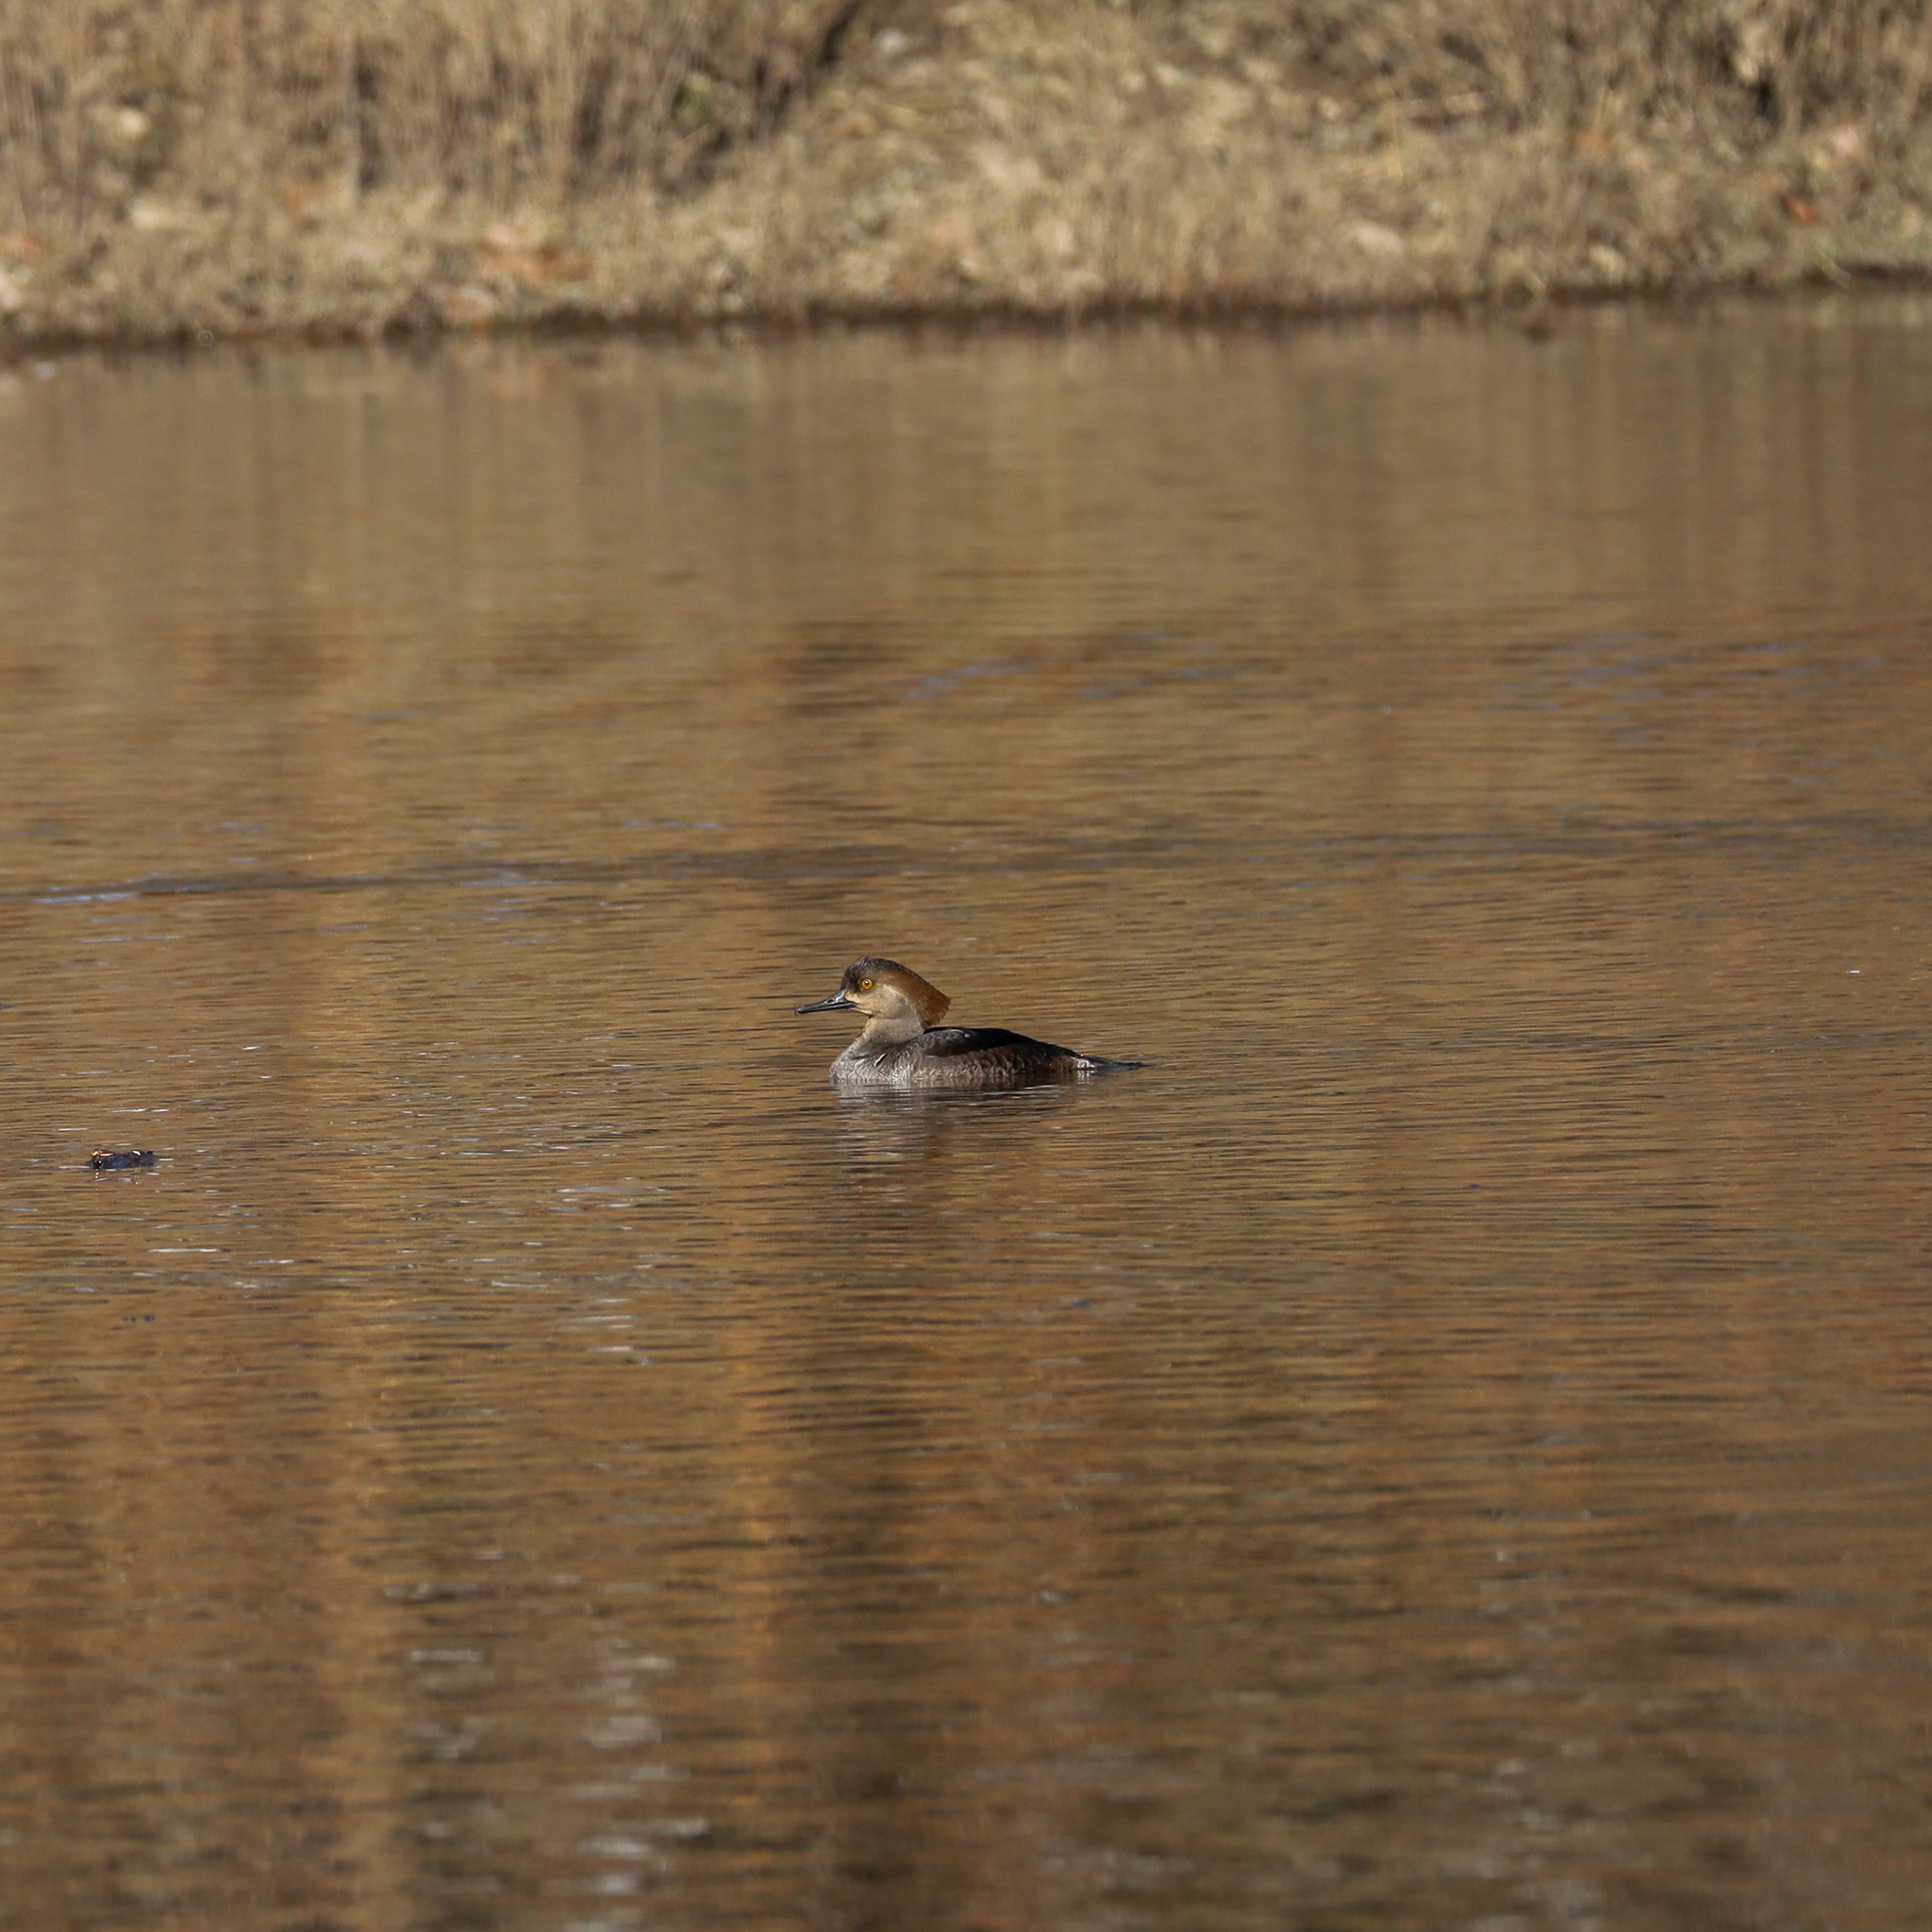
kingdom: Animalia
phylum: Chordata
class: Aves
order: Anseriformes
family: Anatidae
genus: Lophodytes
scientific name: Lophodytes cucullatus
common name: Hooded merganser
